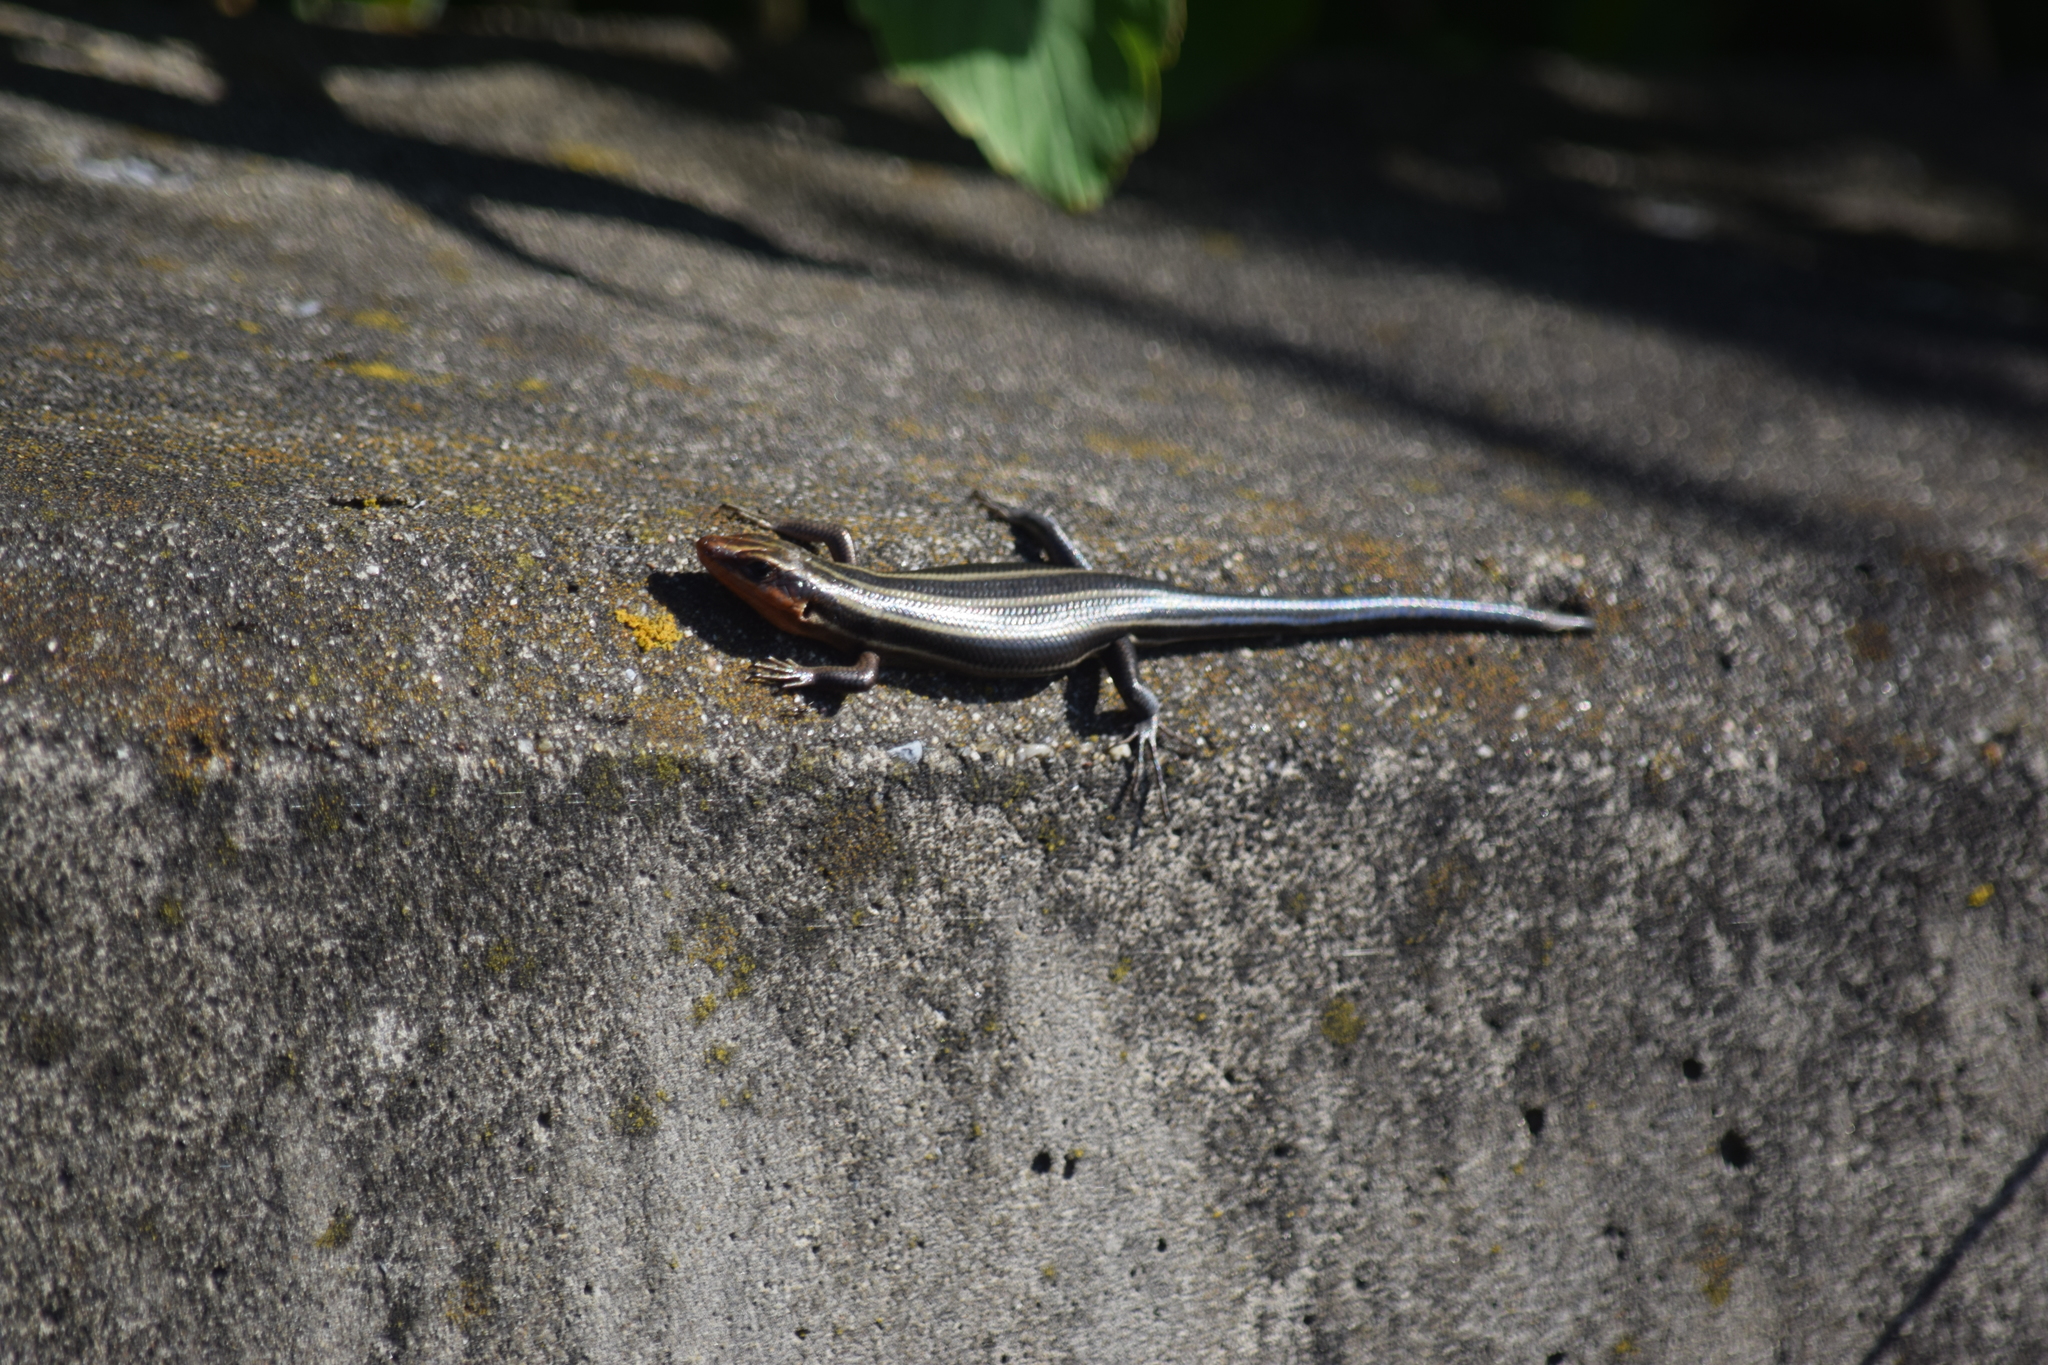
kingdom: Animalia
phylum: Chordata
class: Squamata
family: Scincidae
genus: Plestiodon
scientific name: Plestiodon fasciatus
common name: Five-lined skink
